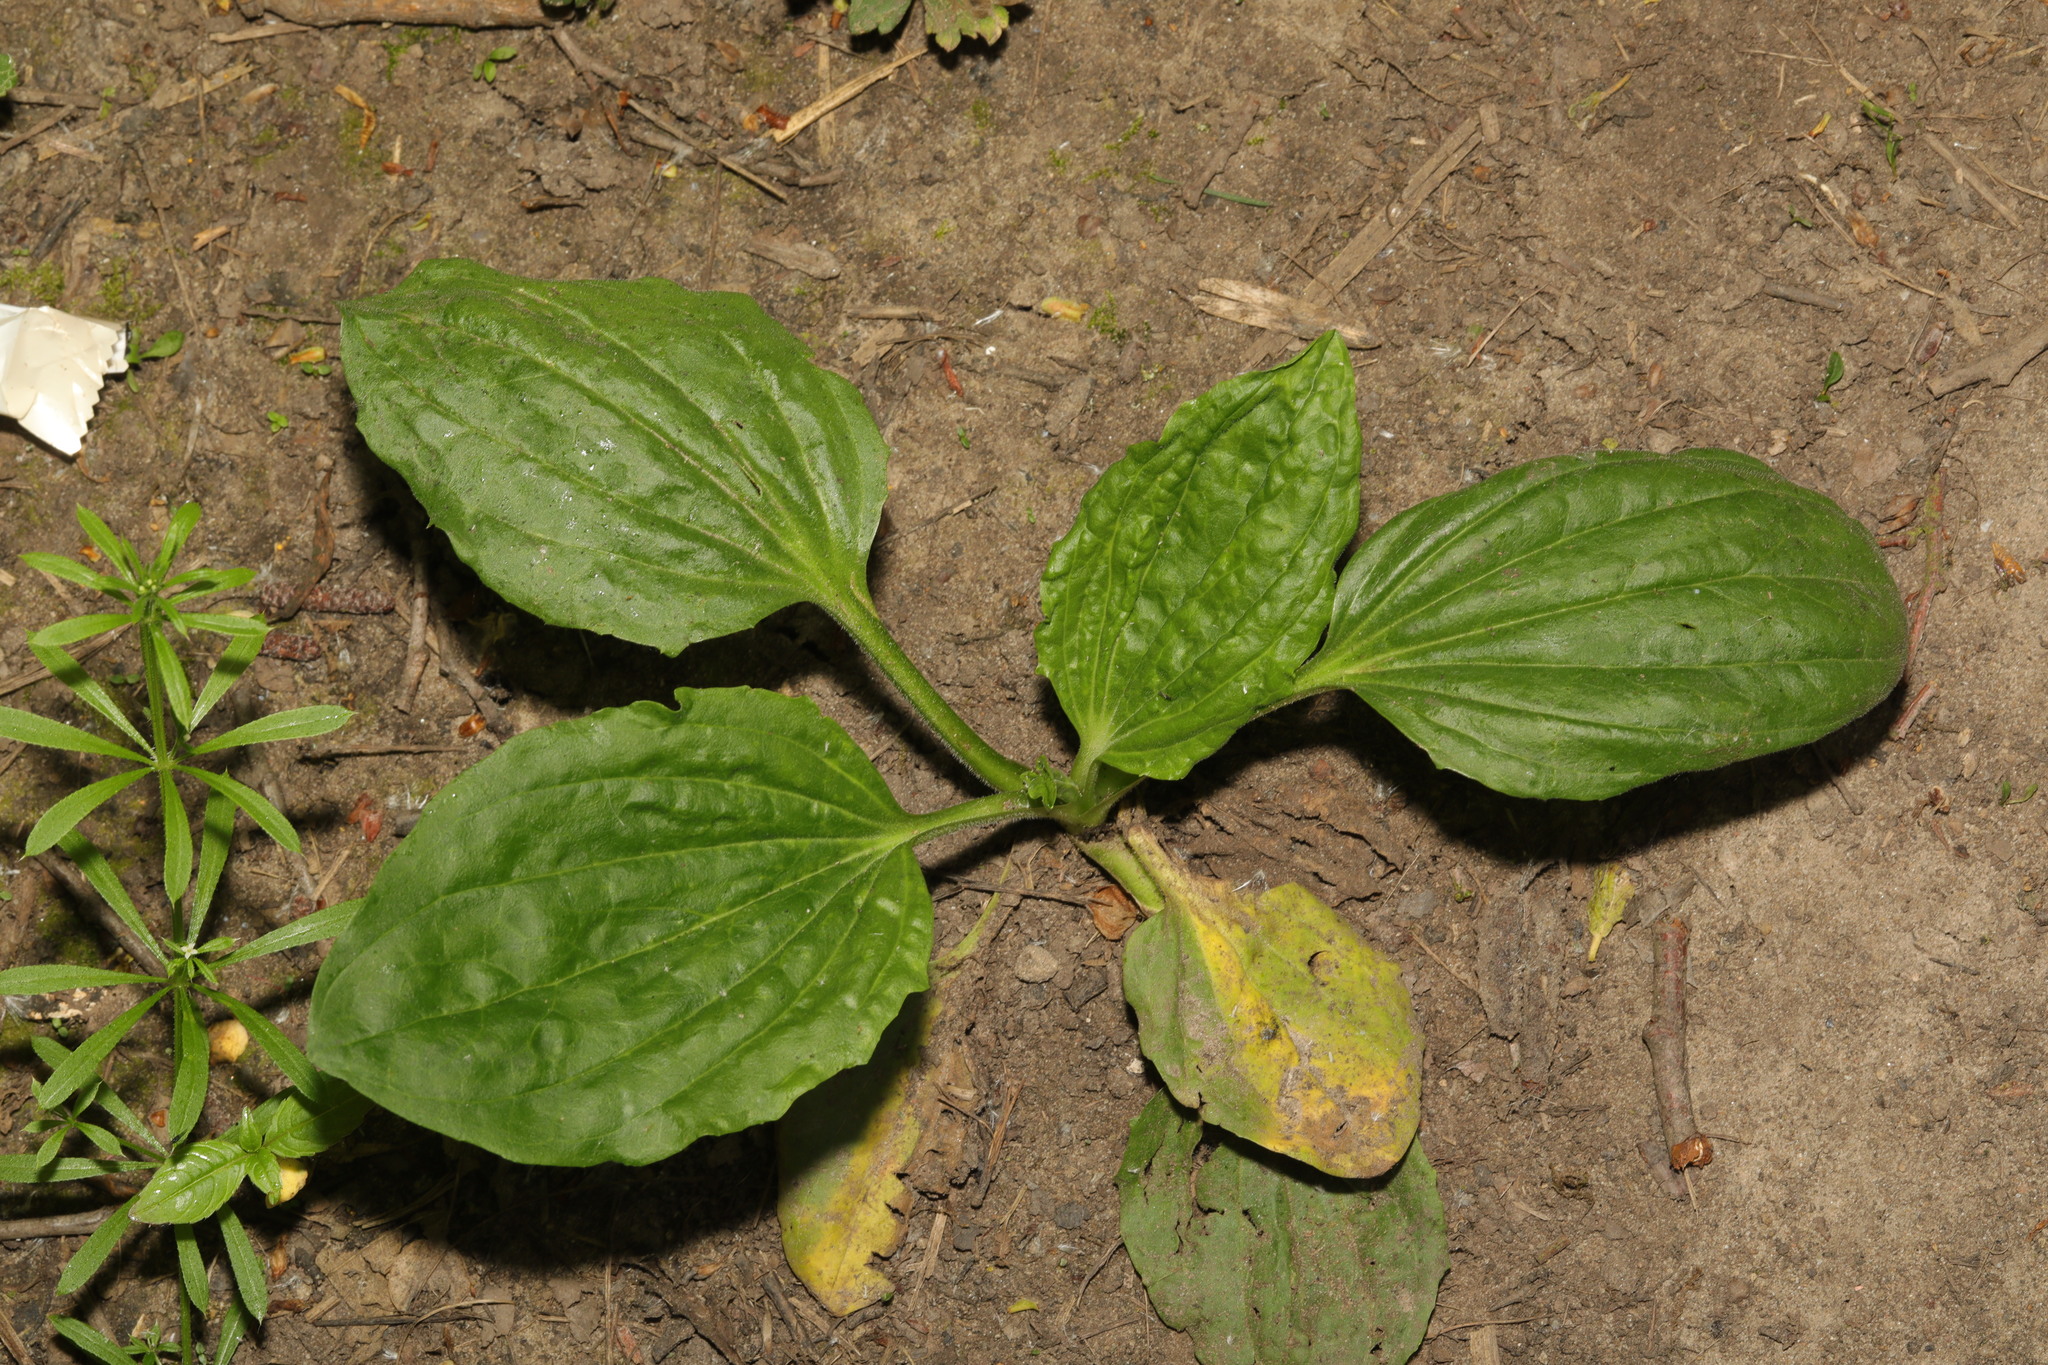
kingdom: Plantae
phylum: Tracheophyta
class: Magnoliopsida
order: Lamiales
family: Plantaginaceae
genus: Plantago
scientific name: Plantago major
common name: Common plantain
